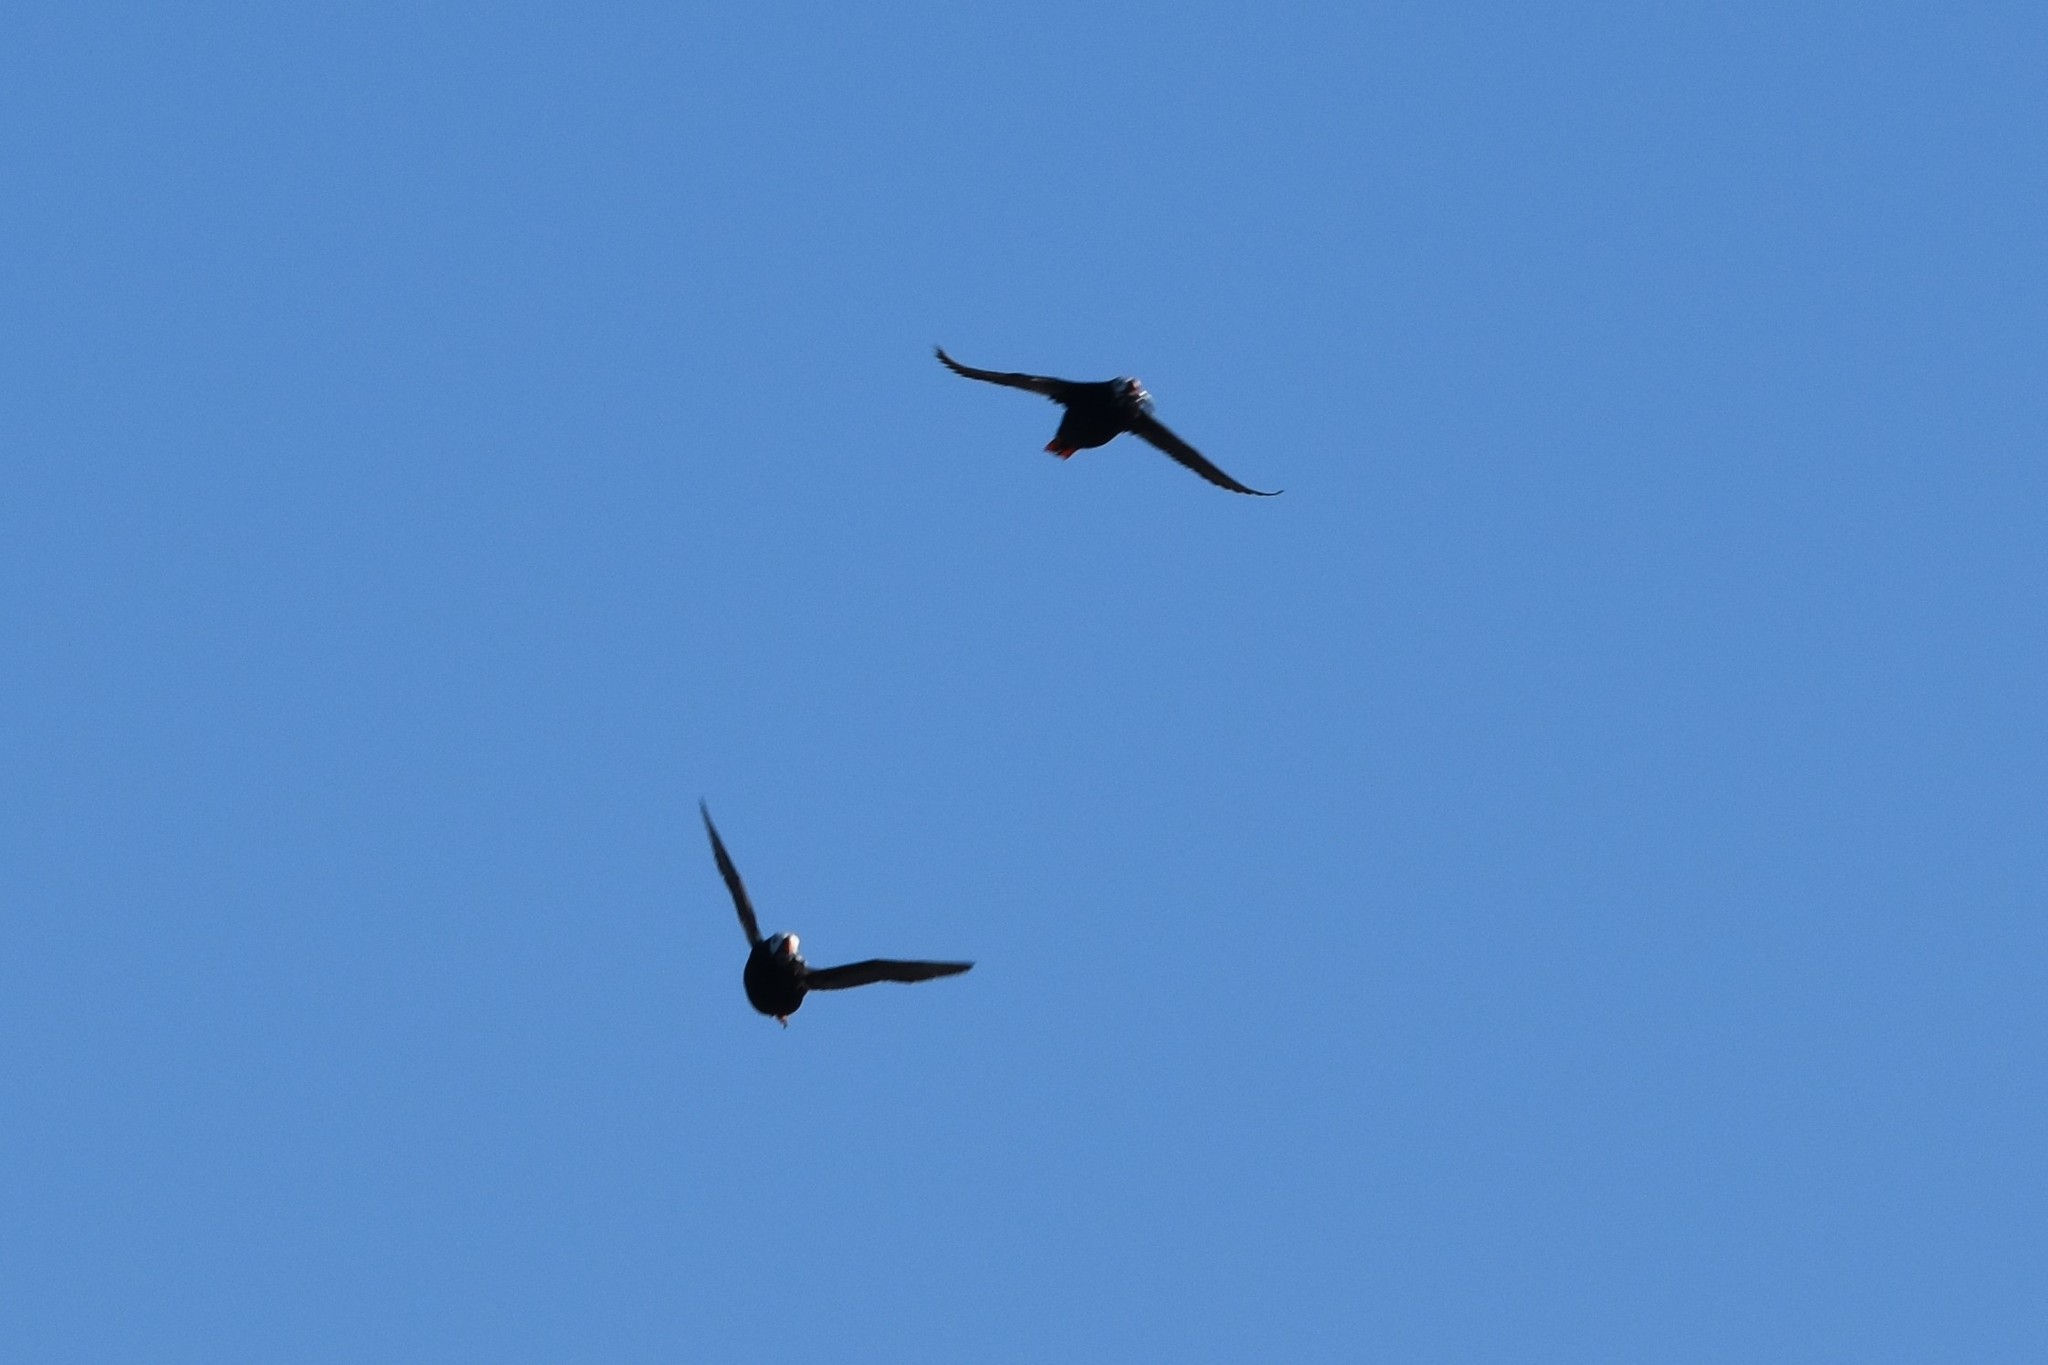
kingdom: Animalia
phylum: Chordata
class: Aves
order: Charadriiformes
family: Alcidae
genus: Fratercula
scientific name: Fratercula cirrhata
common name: Tufted puffin
